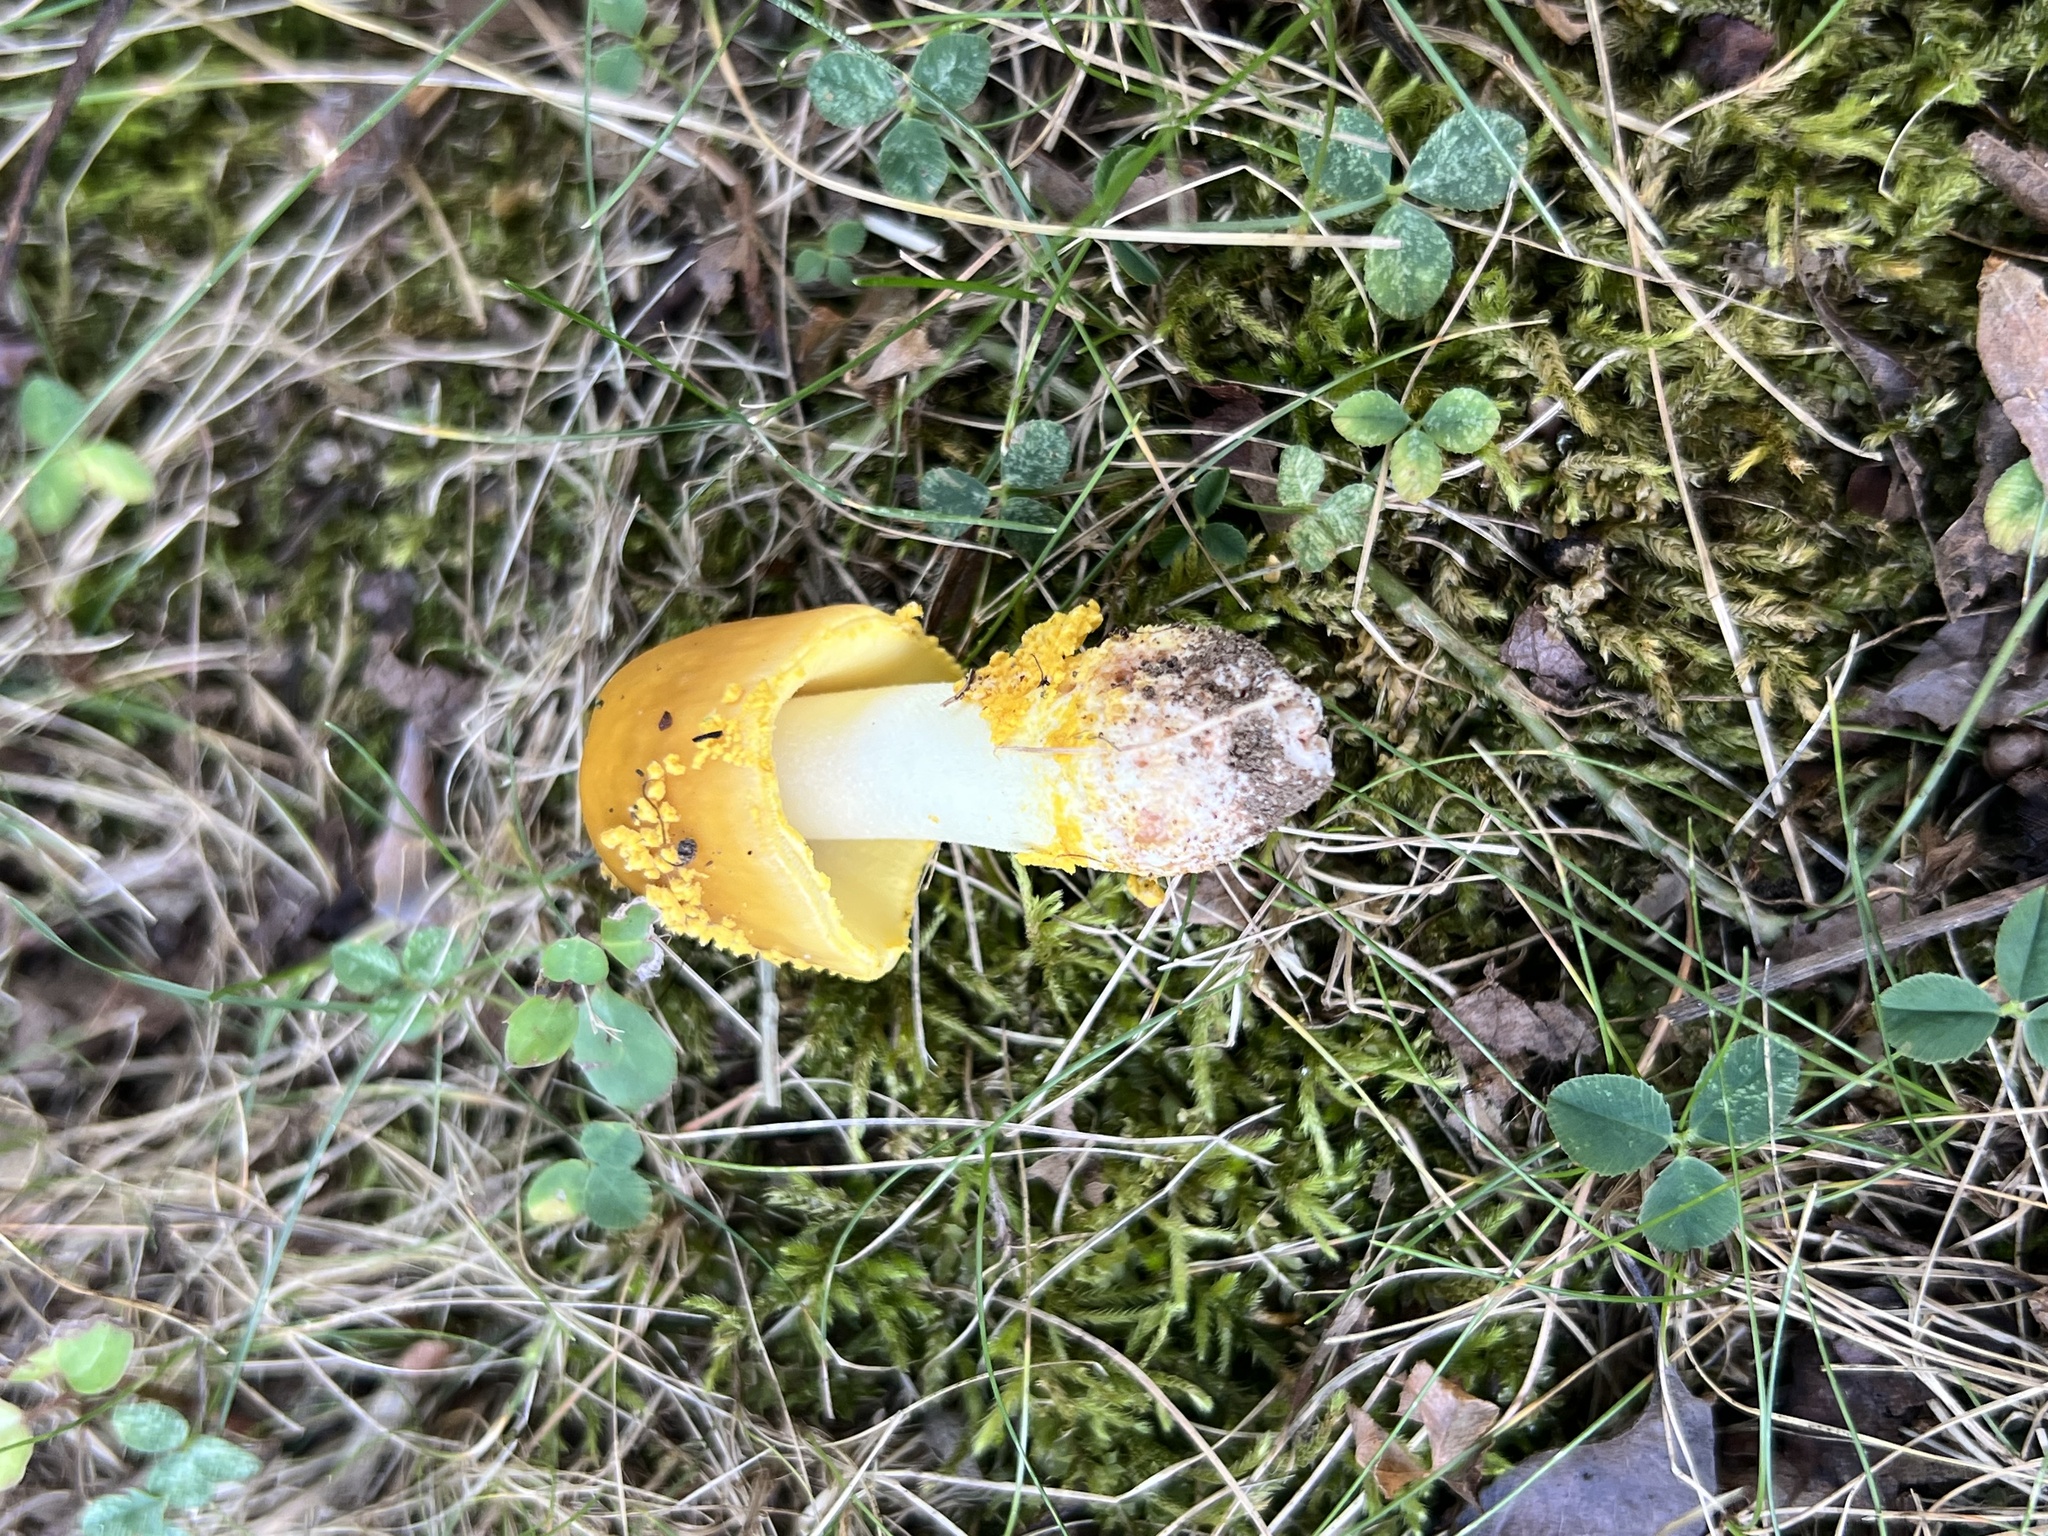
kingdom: Fungi
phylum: Basidiomycota
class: Agaricomycetes
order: Agaricales
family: Amanitaceae
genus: Amanita
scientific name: Amanita flavorubens
